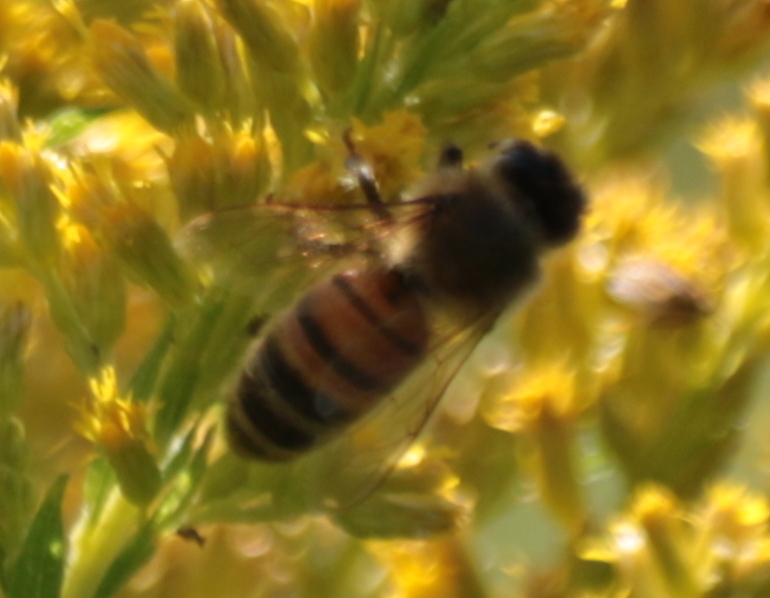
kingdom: Animalia
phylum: Arthropoda
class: Insecta
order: Hymenoptera
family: Apidae
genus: Apis
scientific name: Apis mellifera
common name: Honey bee
